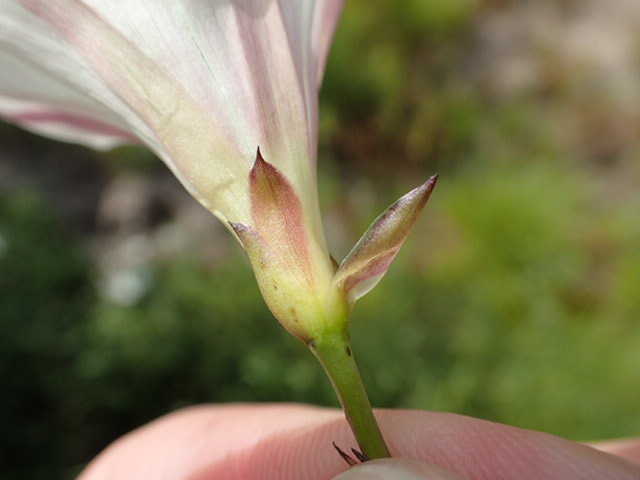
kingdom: Plantae
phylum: Tracheophyta
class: Magnoliopsida
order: Solanales
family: Convolvulaceae
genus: Calystegia
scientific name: Calystegia purpurata
